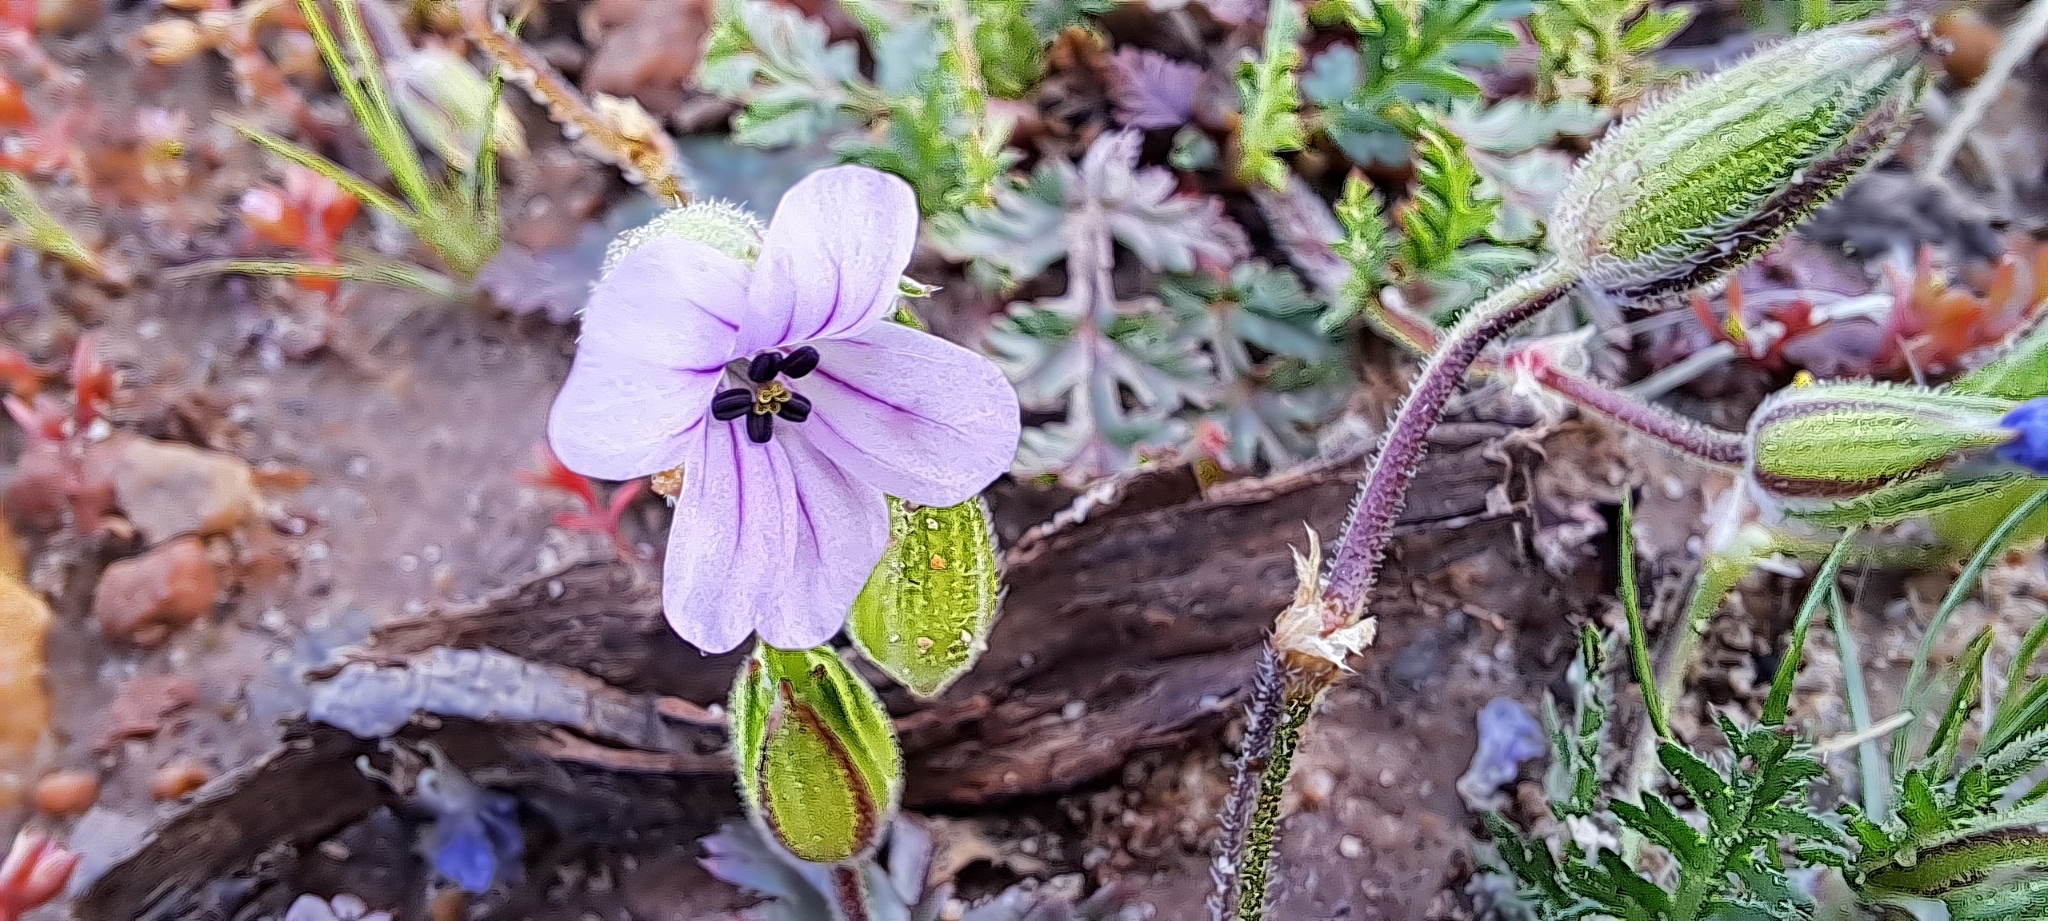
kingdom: Plantae
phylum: Tracheophyta
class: Magnoliopsida
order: Geraniales
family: Geraniaceae
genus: Erodium
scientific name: Erodium botrys
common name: Mediterranean stork's-bill
